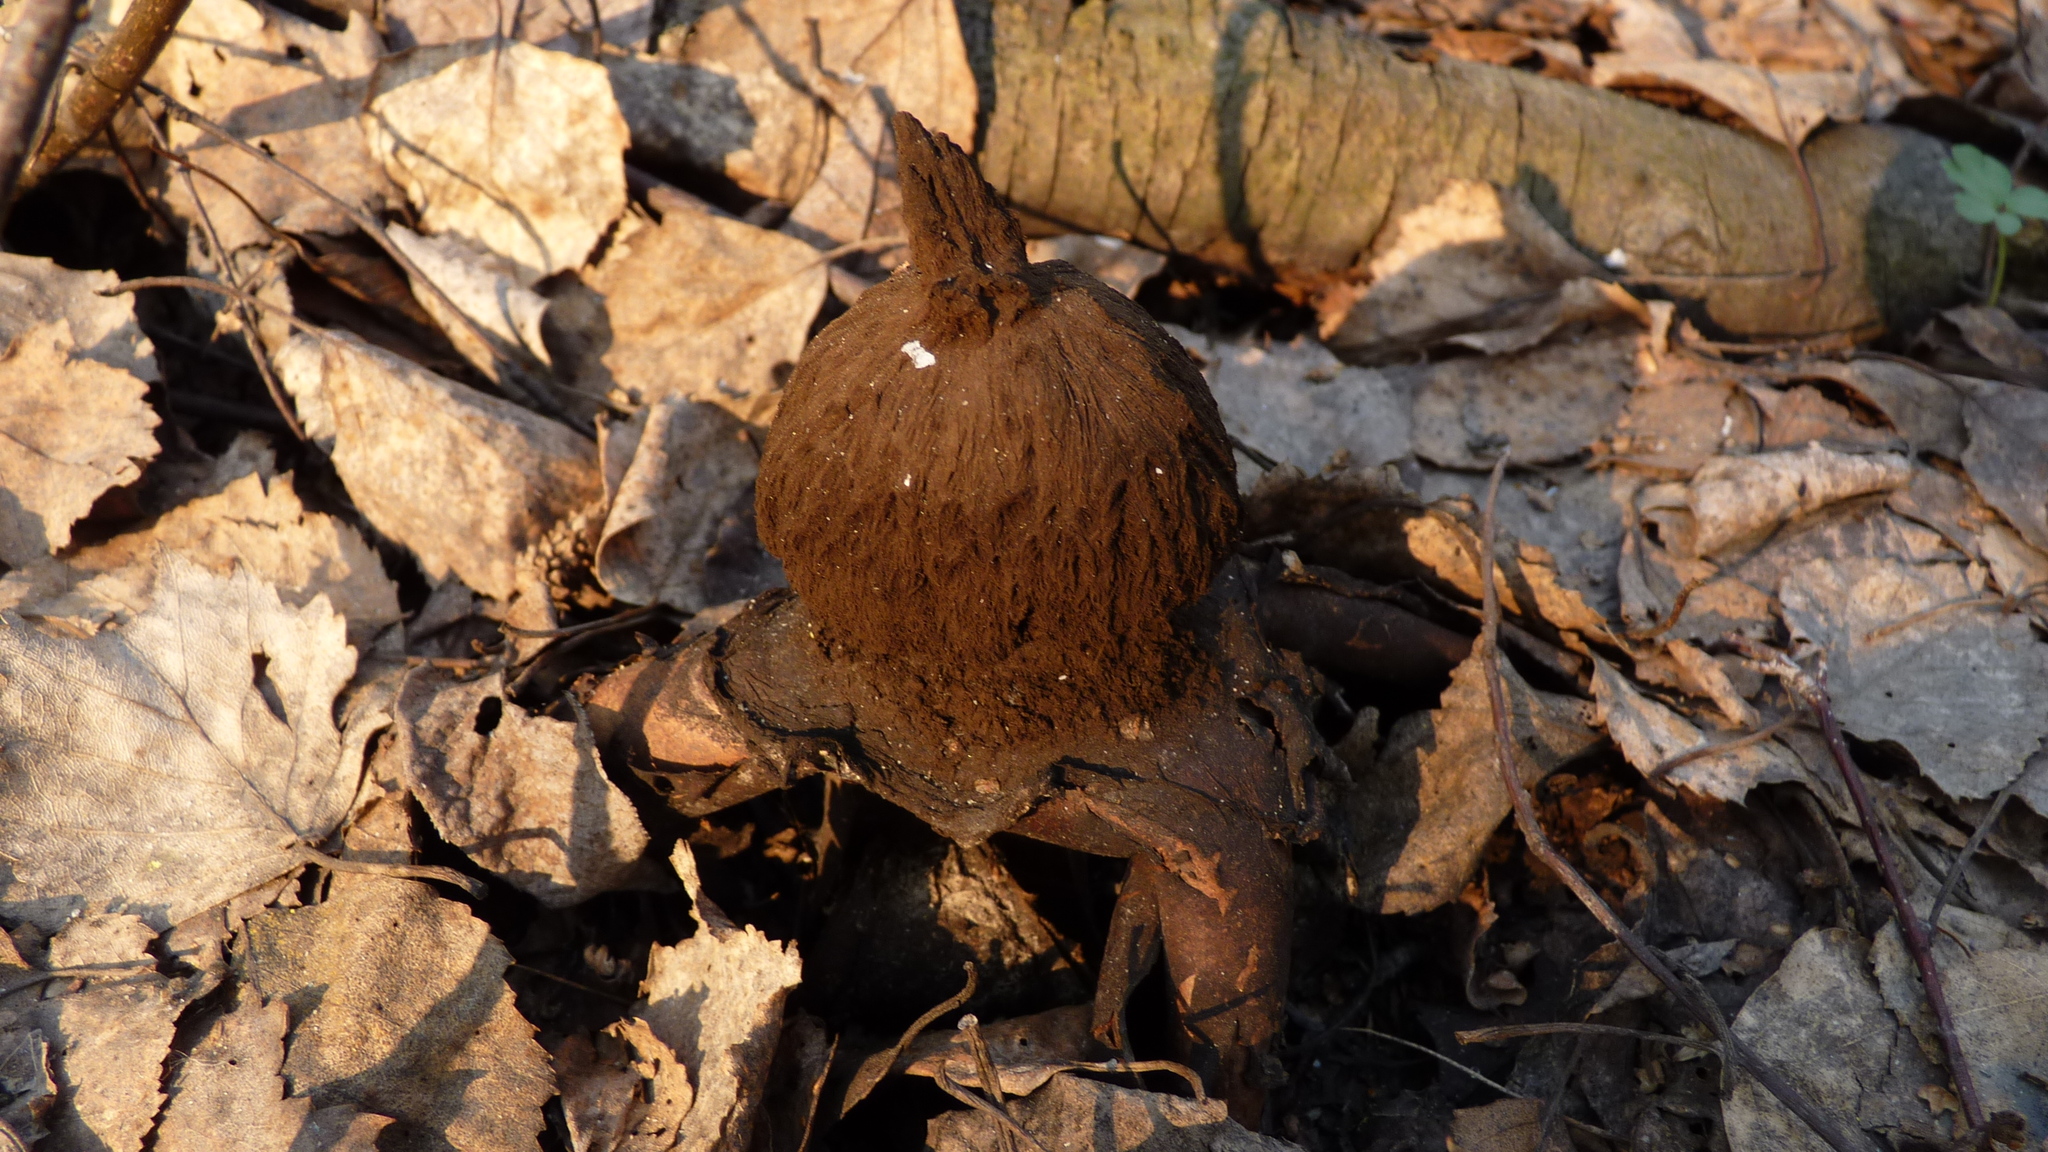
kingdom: Fungi
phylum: Basidiomycota
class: Agaricomycetes
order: Geastrales
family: Geastraceae
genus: Geastrum
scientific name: Geastrum melanocephalum
